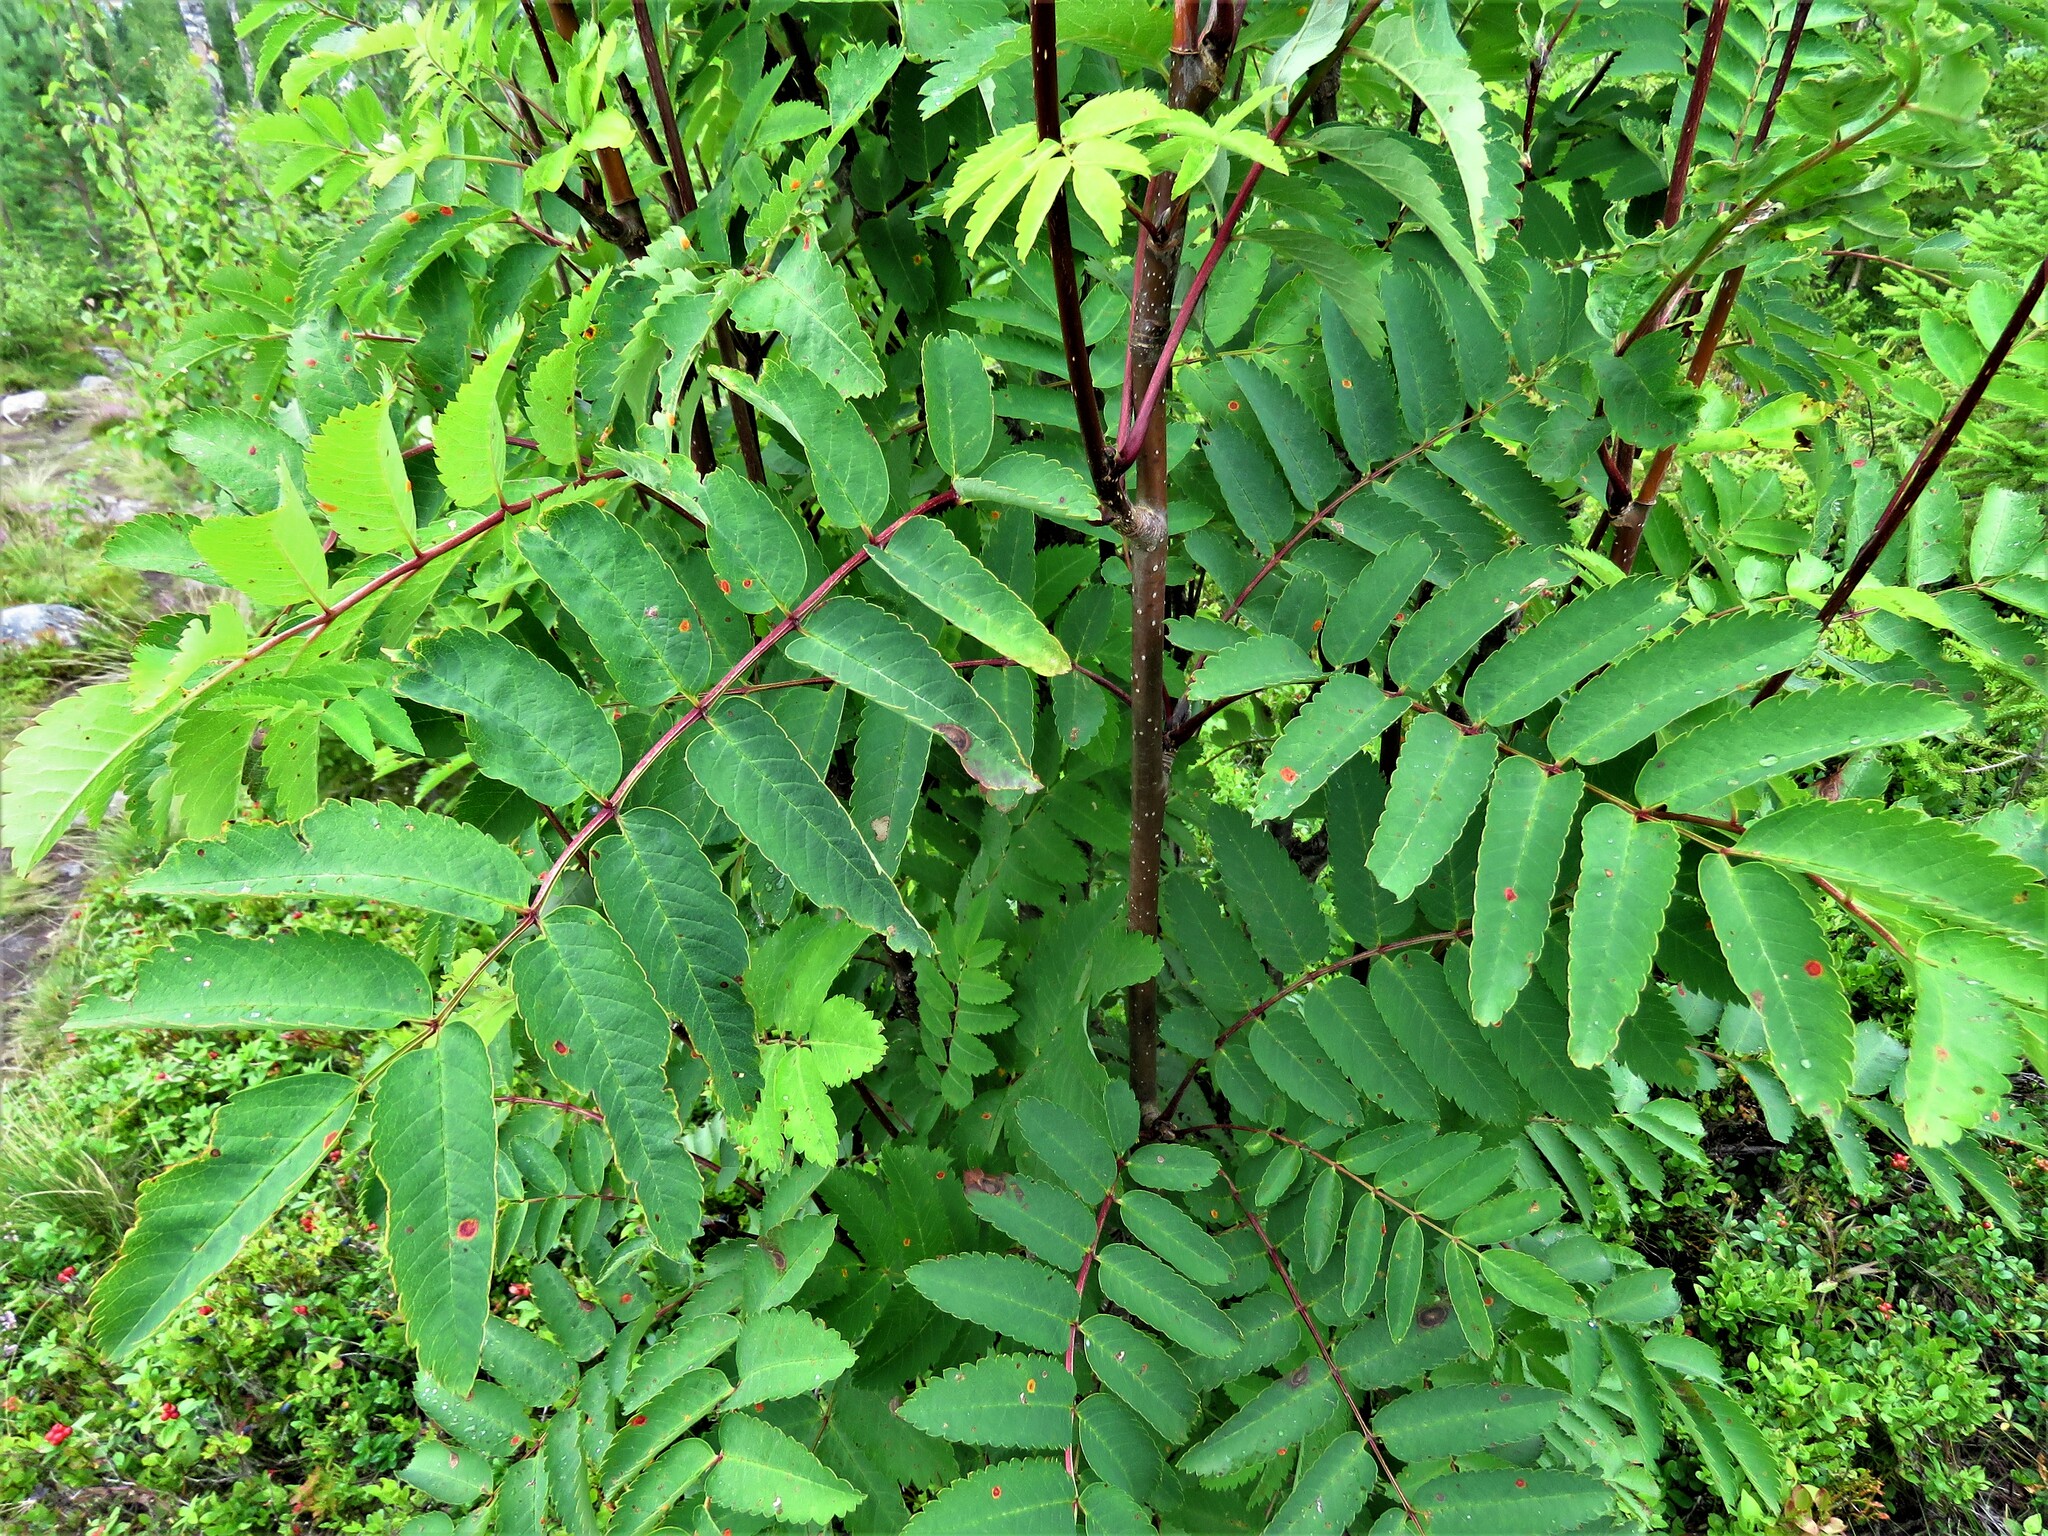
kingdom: Plantae
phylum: Tracheophyta
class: Magnoliopsida
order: Rosales
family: Rosaceae
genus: Sorbus
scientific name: Sorbus aucuparia
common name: Rowan
